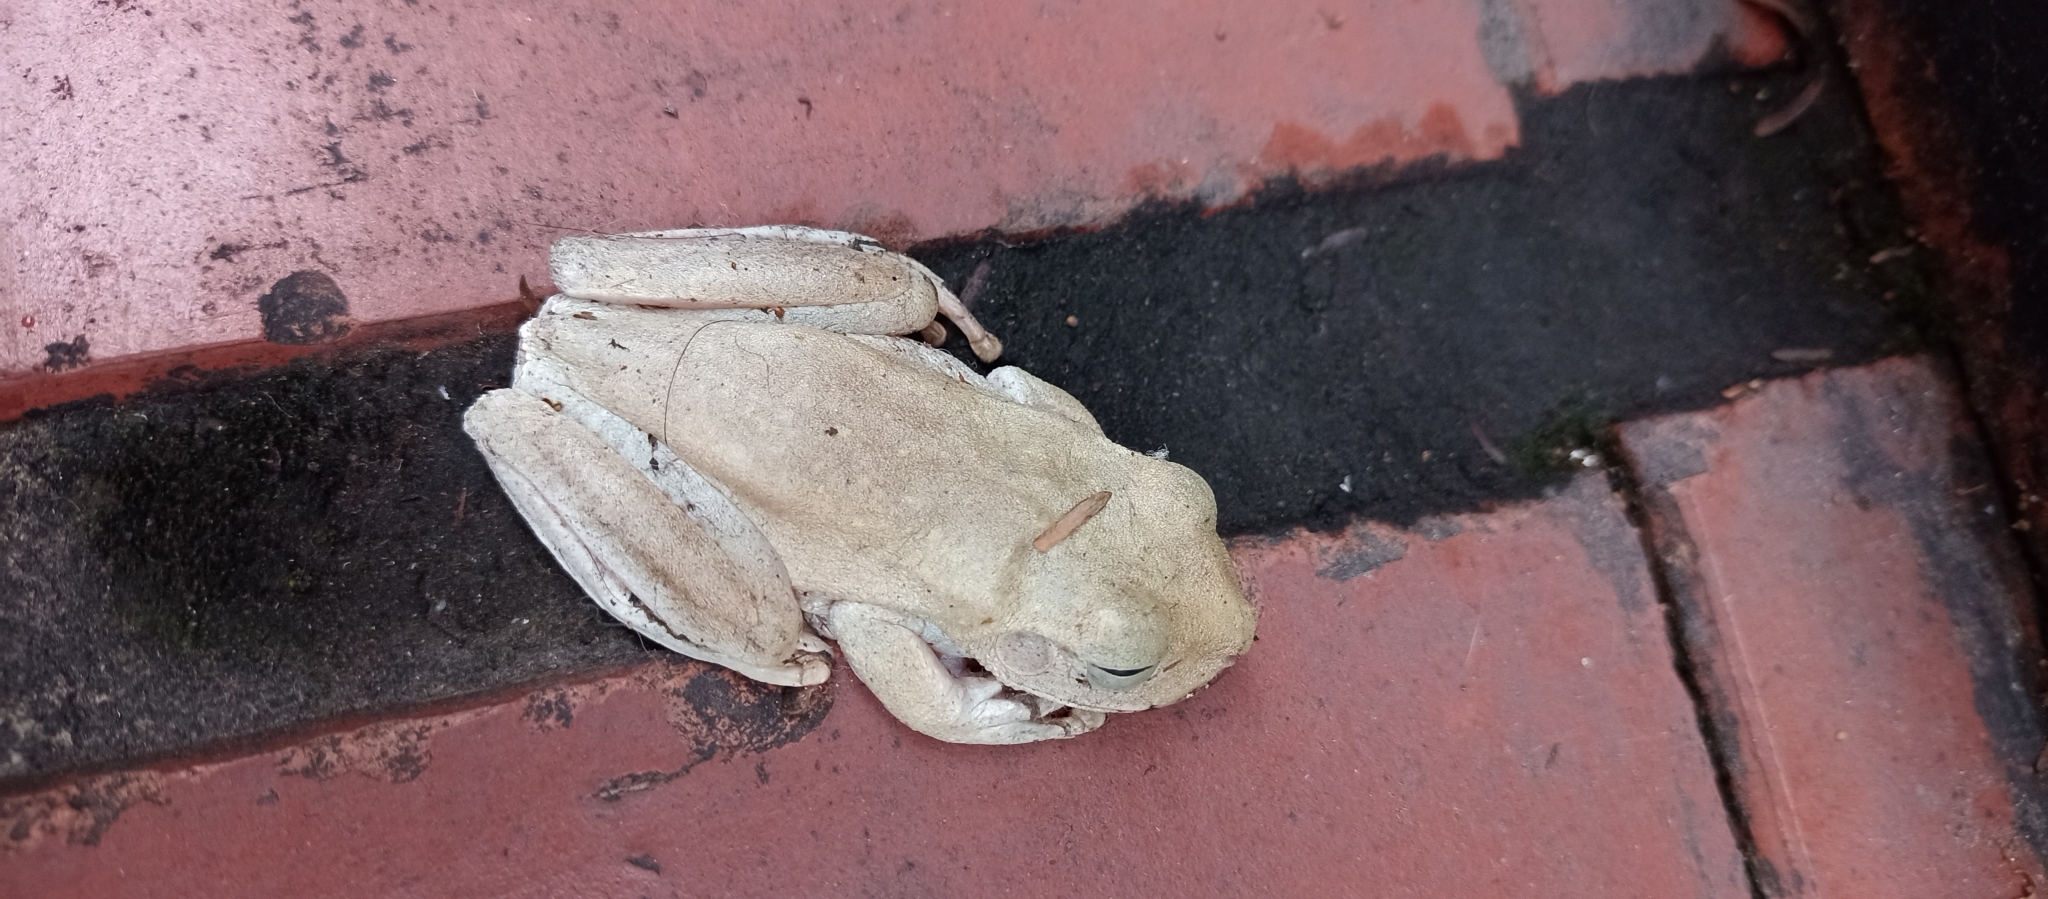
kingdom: Animalia
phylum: Chordata
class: Amphibia
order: Anura
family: Hylidae
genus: Boana
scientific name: Boana platanera
